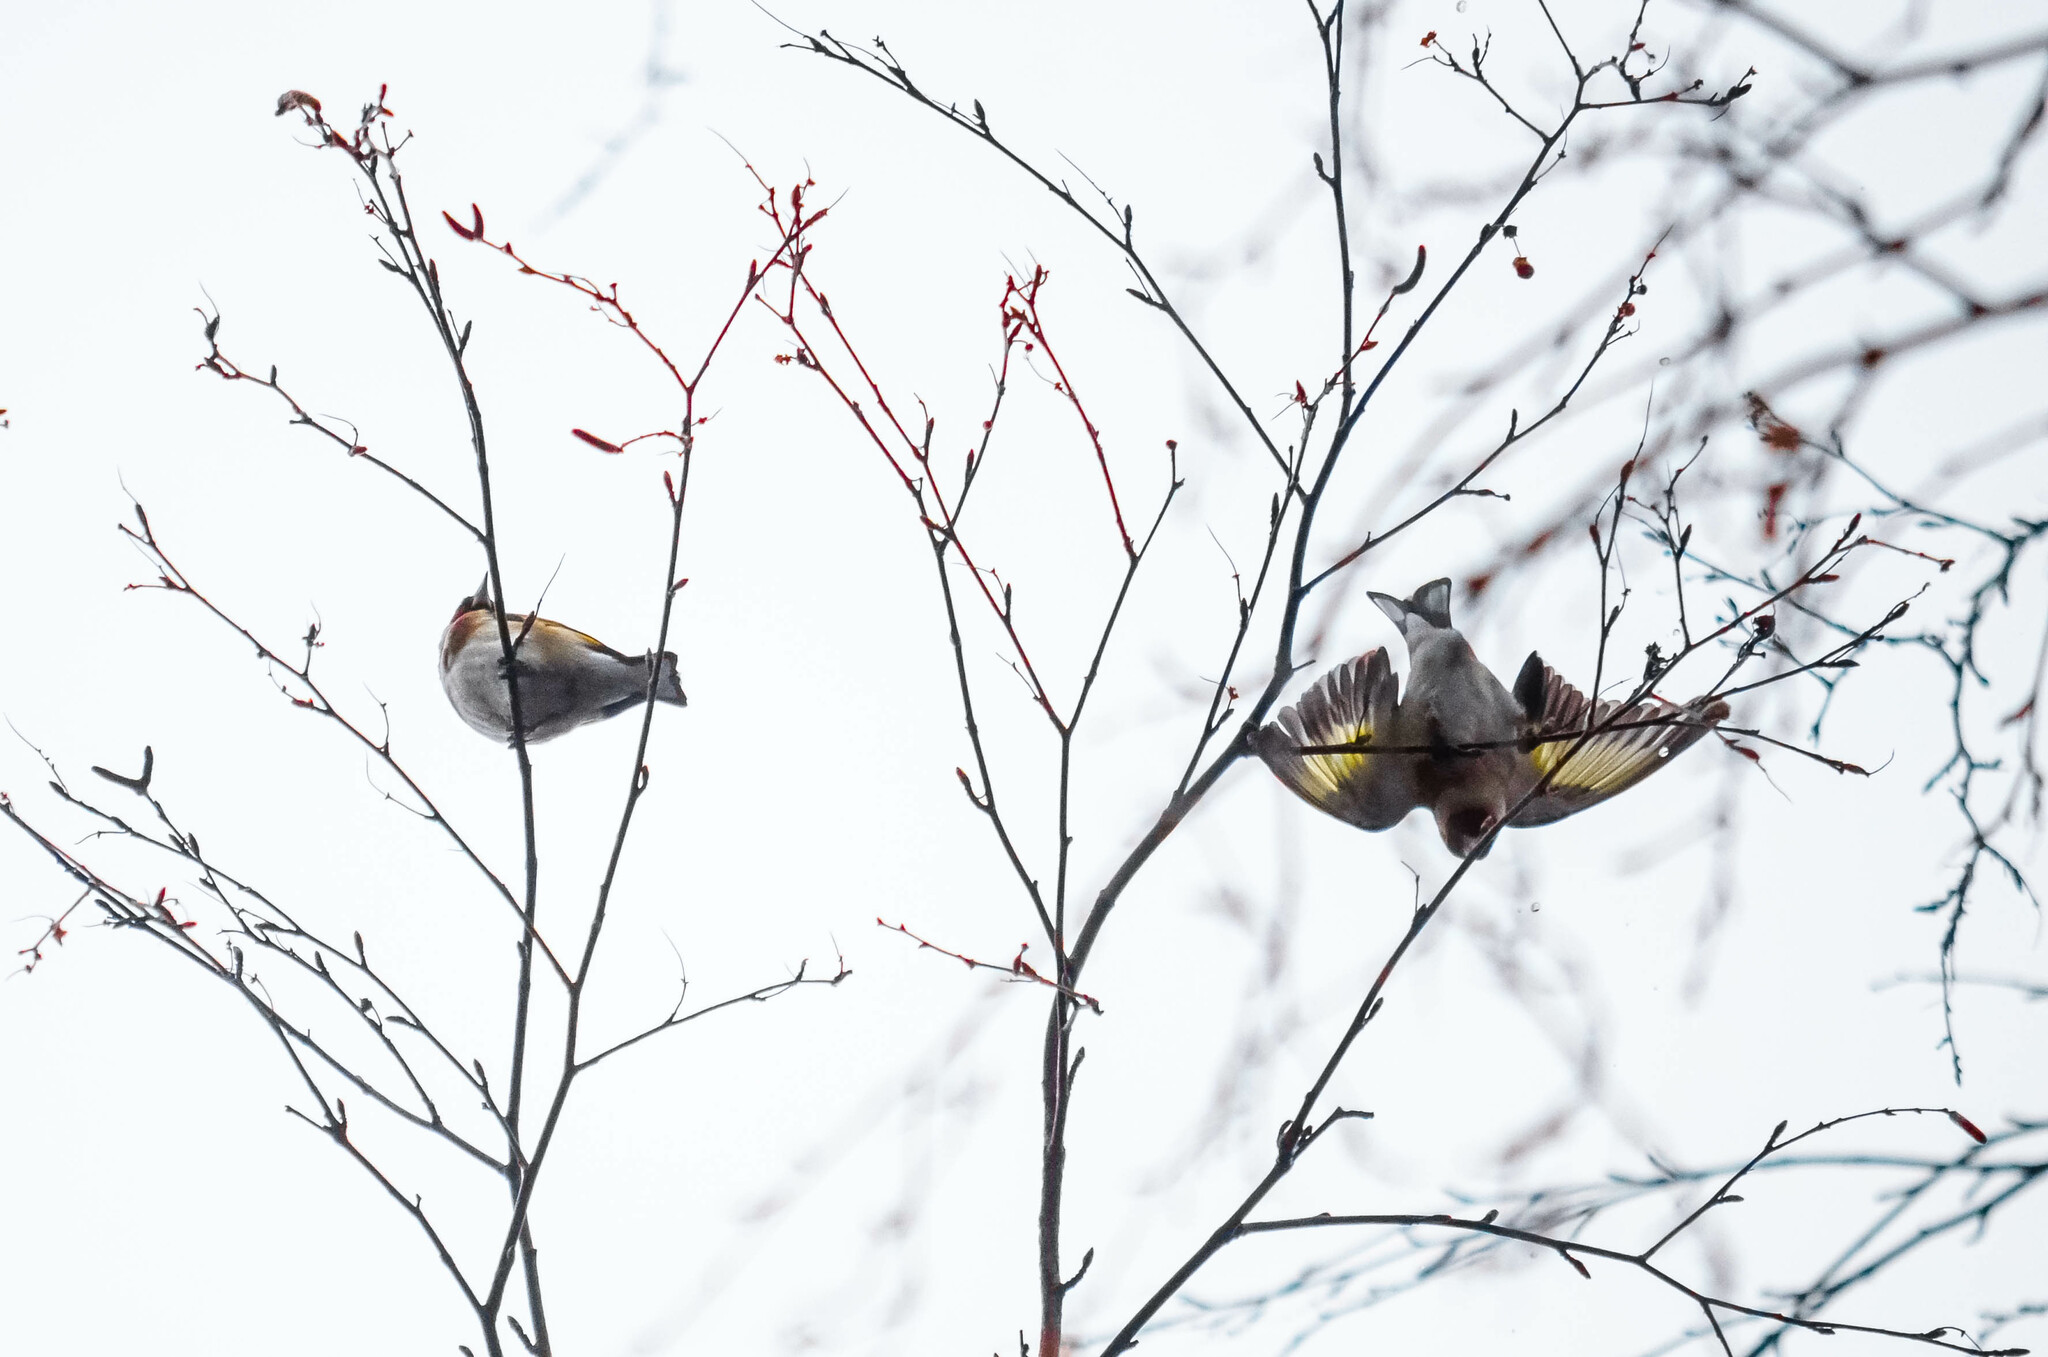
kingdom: Animalia
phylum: Chordata
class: Aves
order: Passeriformes
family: Fringillidae
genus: Carduelis
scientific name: Carduelis carduelis
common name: European goldfinch
